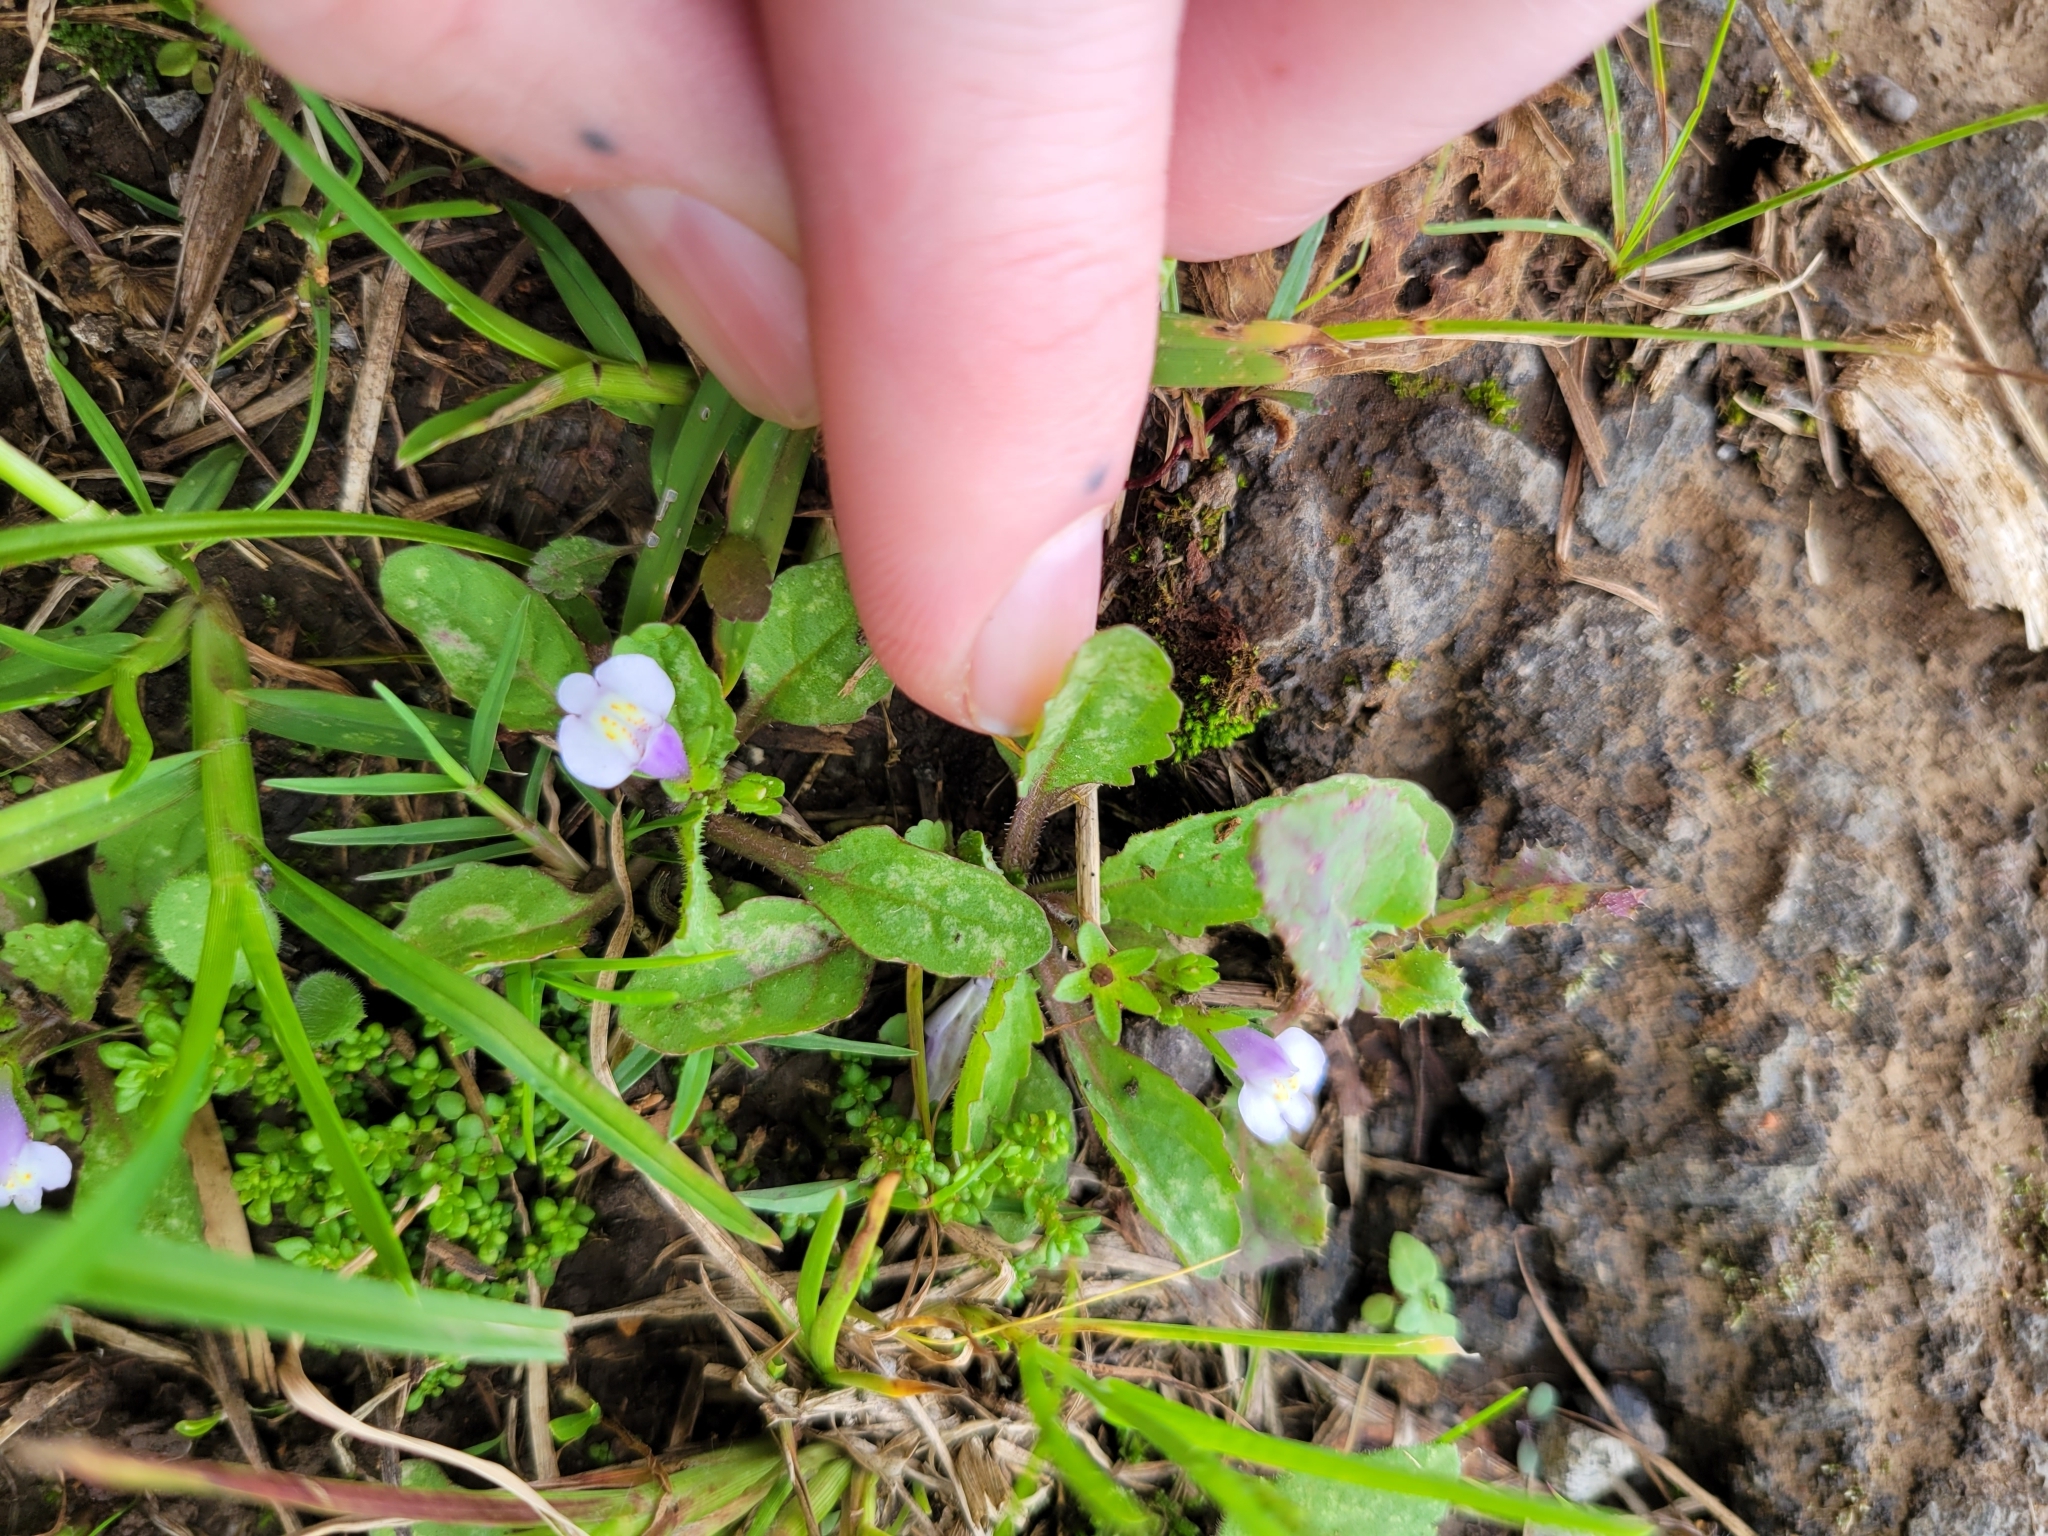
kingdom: Plantae
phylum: Tracheophyta
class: Magnoliopsida
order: Lamiales
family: Mazaceae
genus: Mazus
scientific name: Mazus pumilus
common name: Japanese mazus
